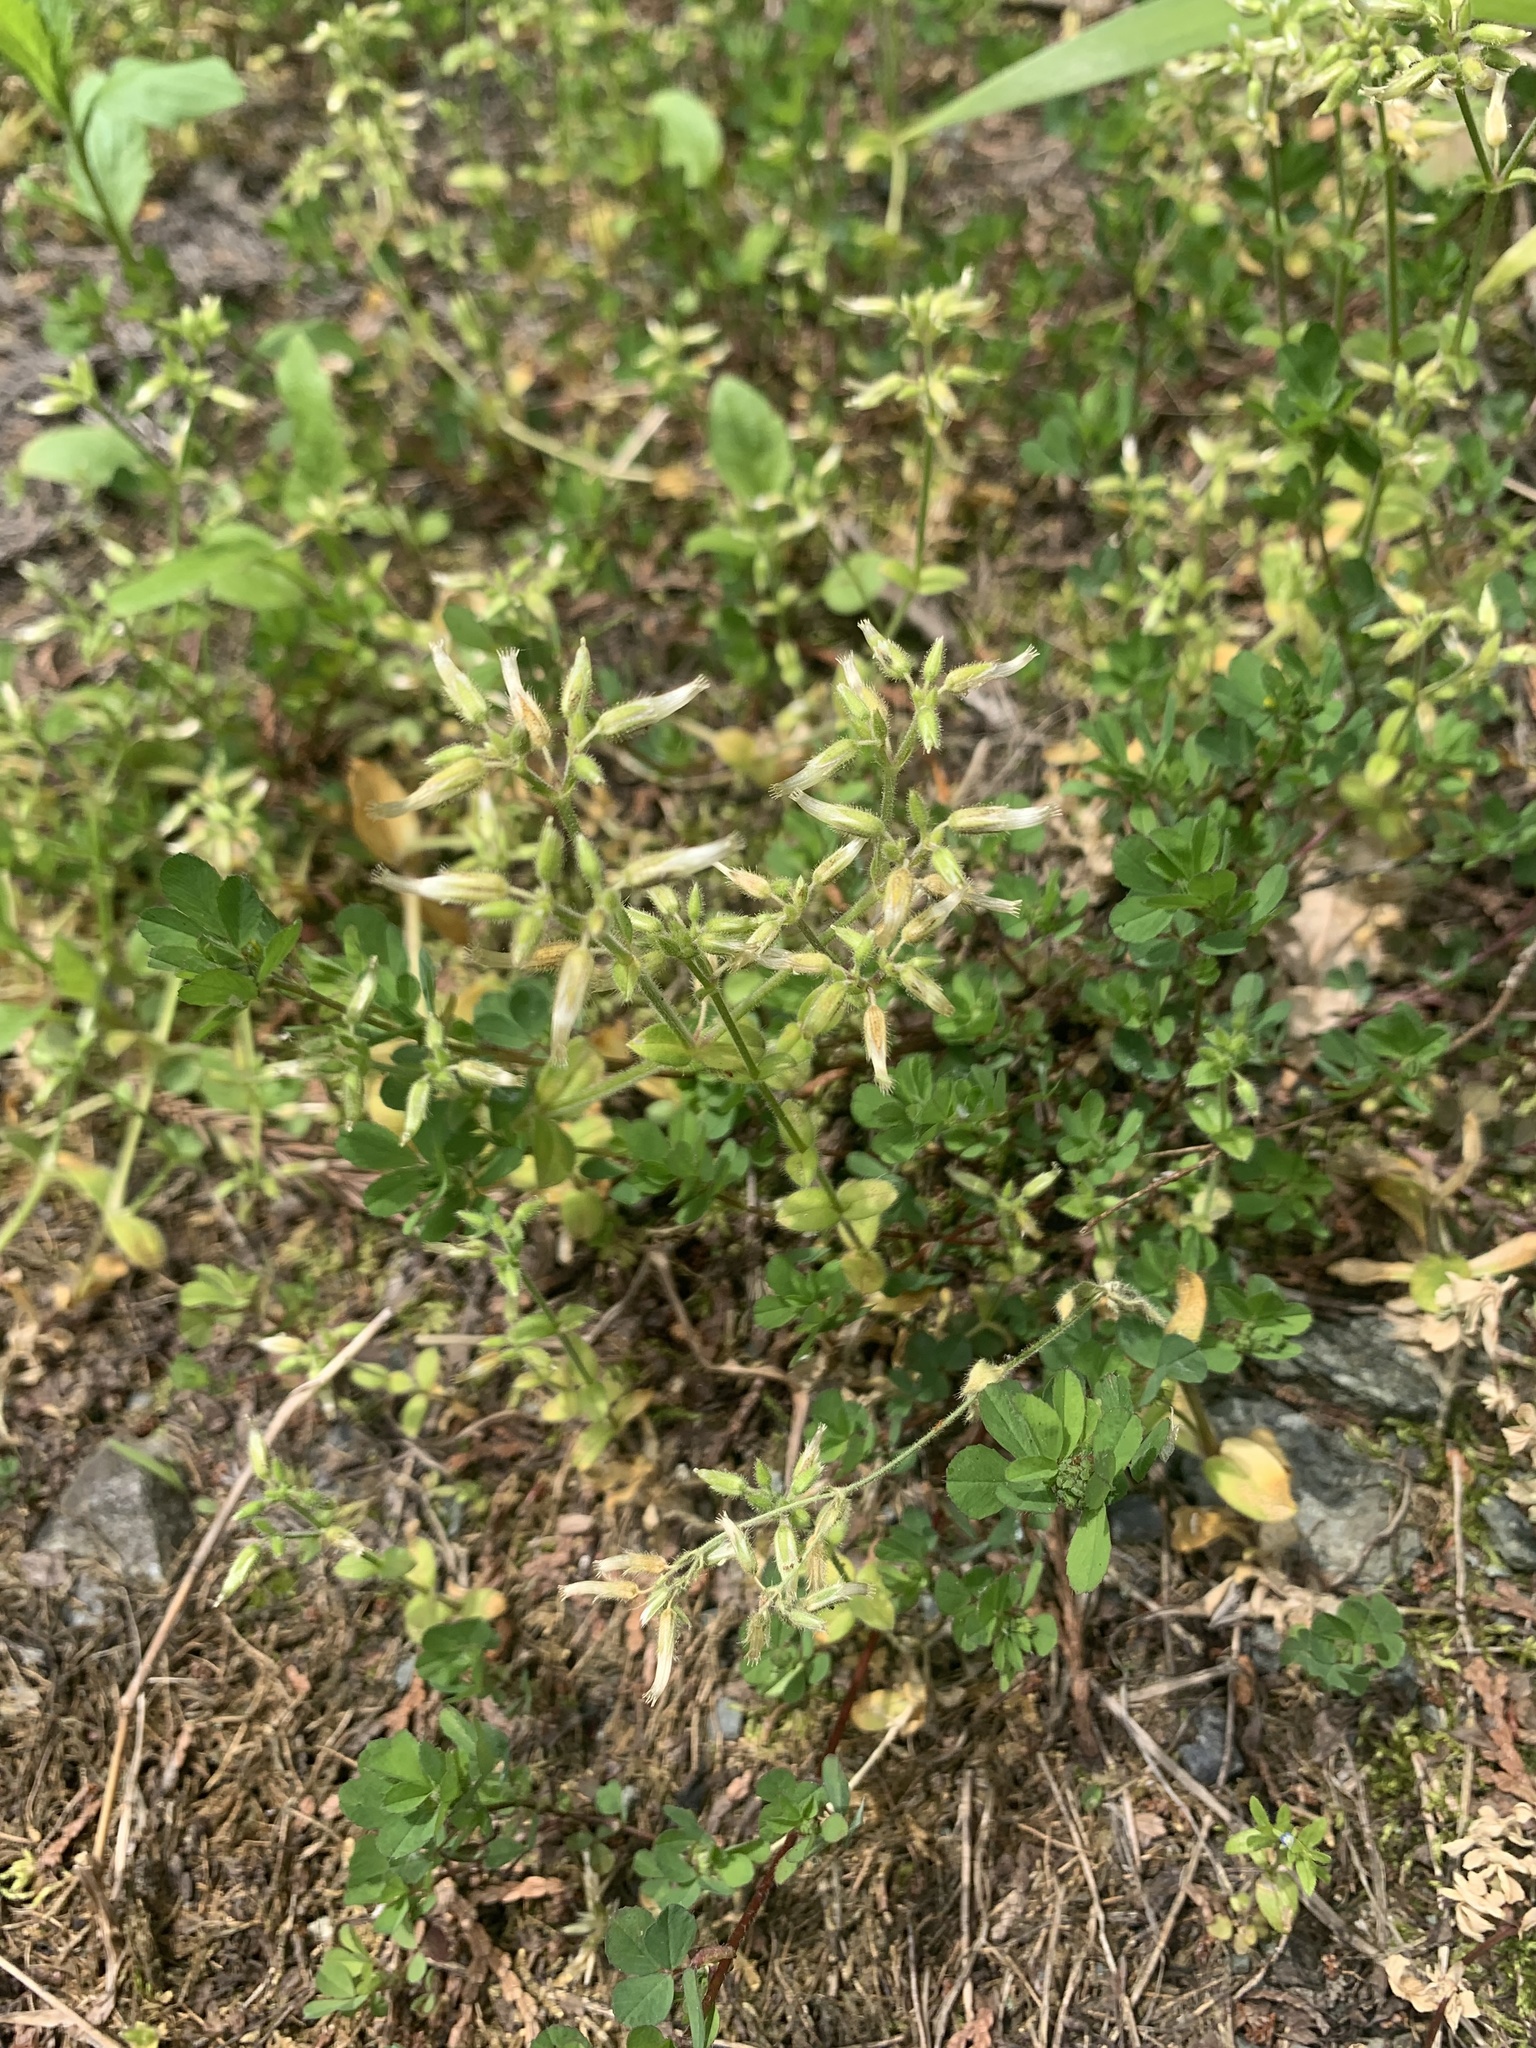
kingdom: Plantae
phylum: Tracheophyta
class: Magnoliopsida
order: Caryophyllales
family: Caryophyllaceae
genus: Cerastium
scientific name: Cerastium glomeratum
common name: Sticky chickweed
